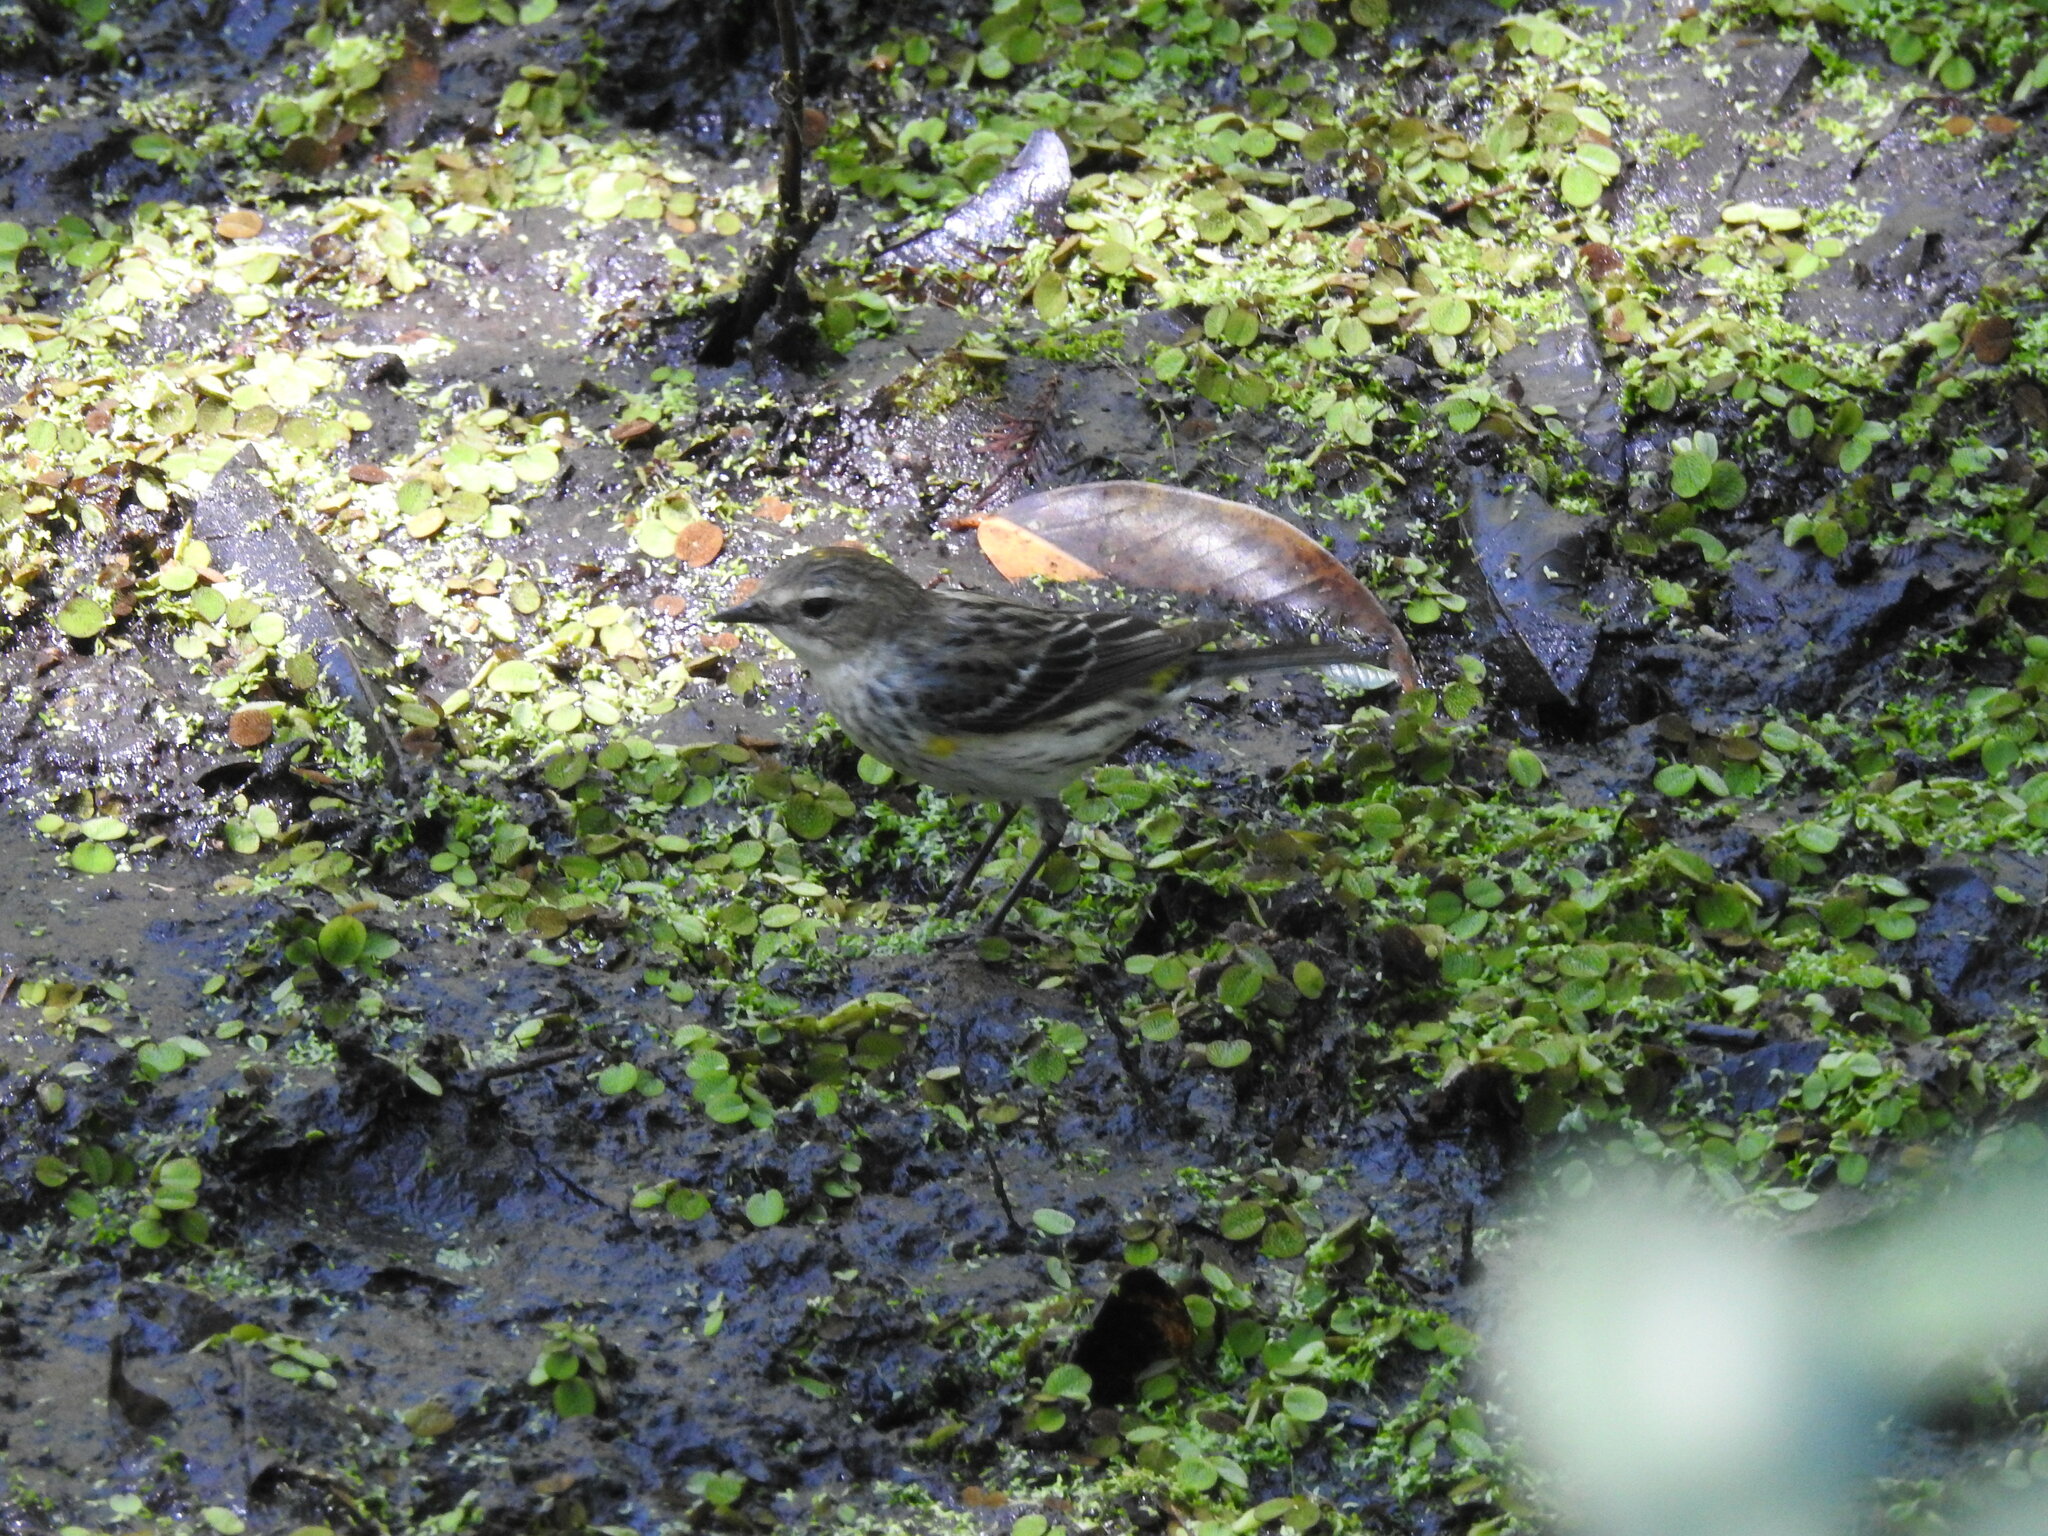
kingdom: Animalia
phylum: Chordata
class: Aves
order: Passeriformes
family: Parulidae
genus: Setophaga
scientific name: Setophaga coronata
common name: Myrtle warbler
